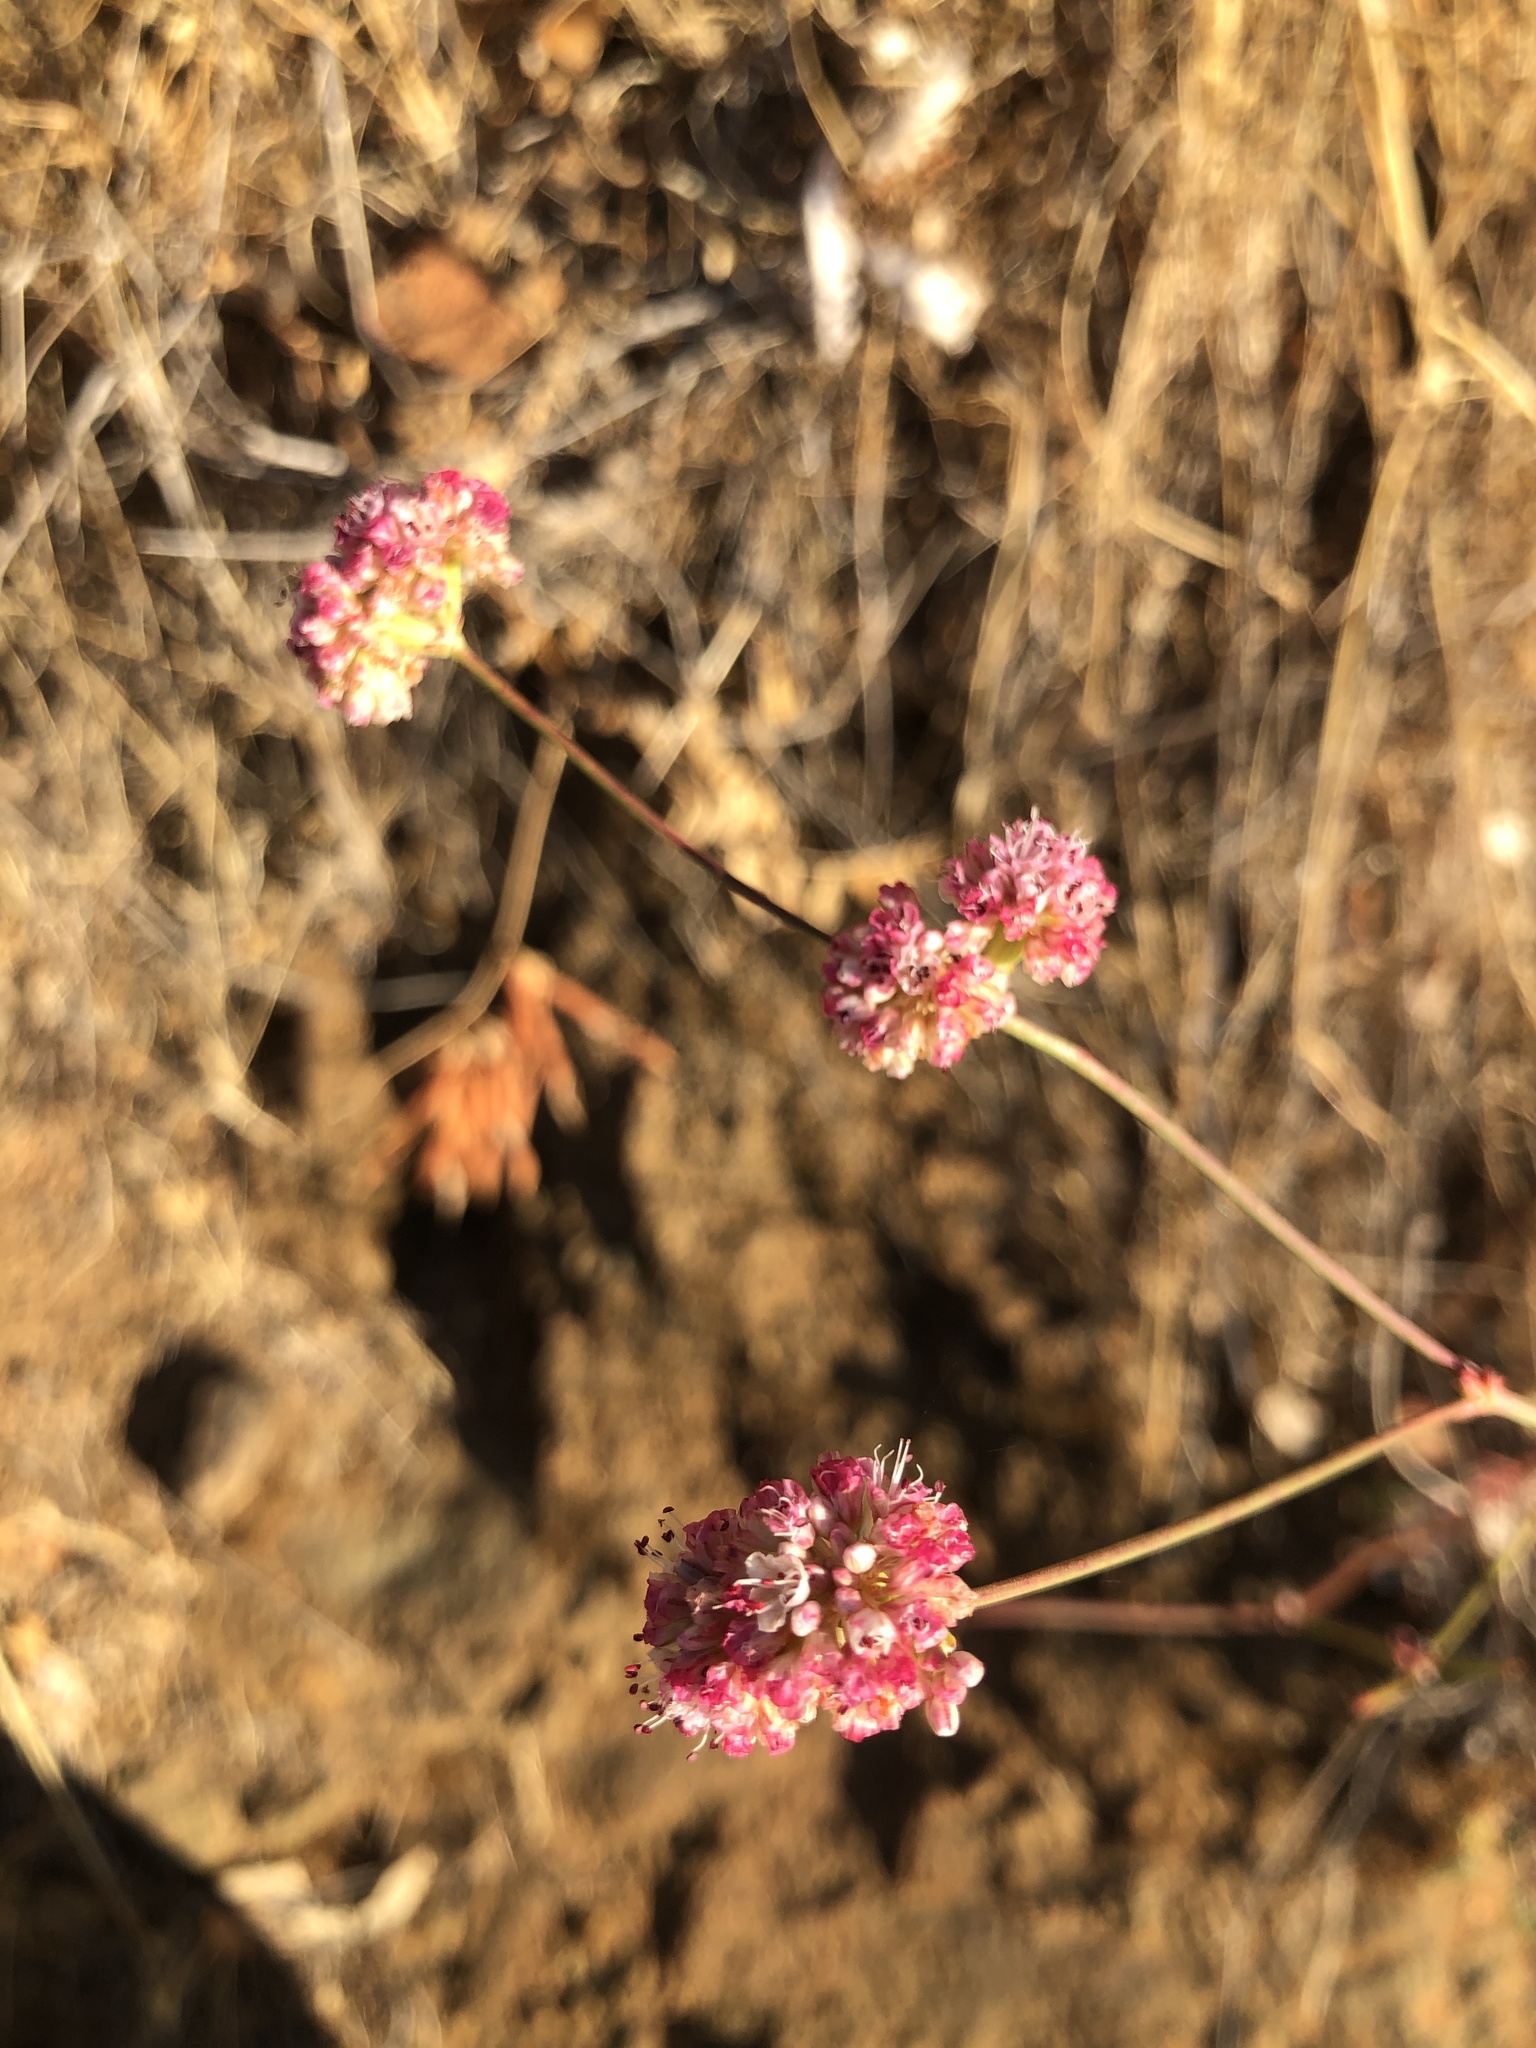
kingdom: Plantae
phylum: Tracheophyta
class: Magnoliopsida
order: Caryophyllales
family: Polygonaceae
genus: Eriogonum
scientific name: Eriogonum nudum
